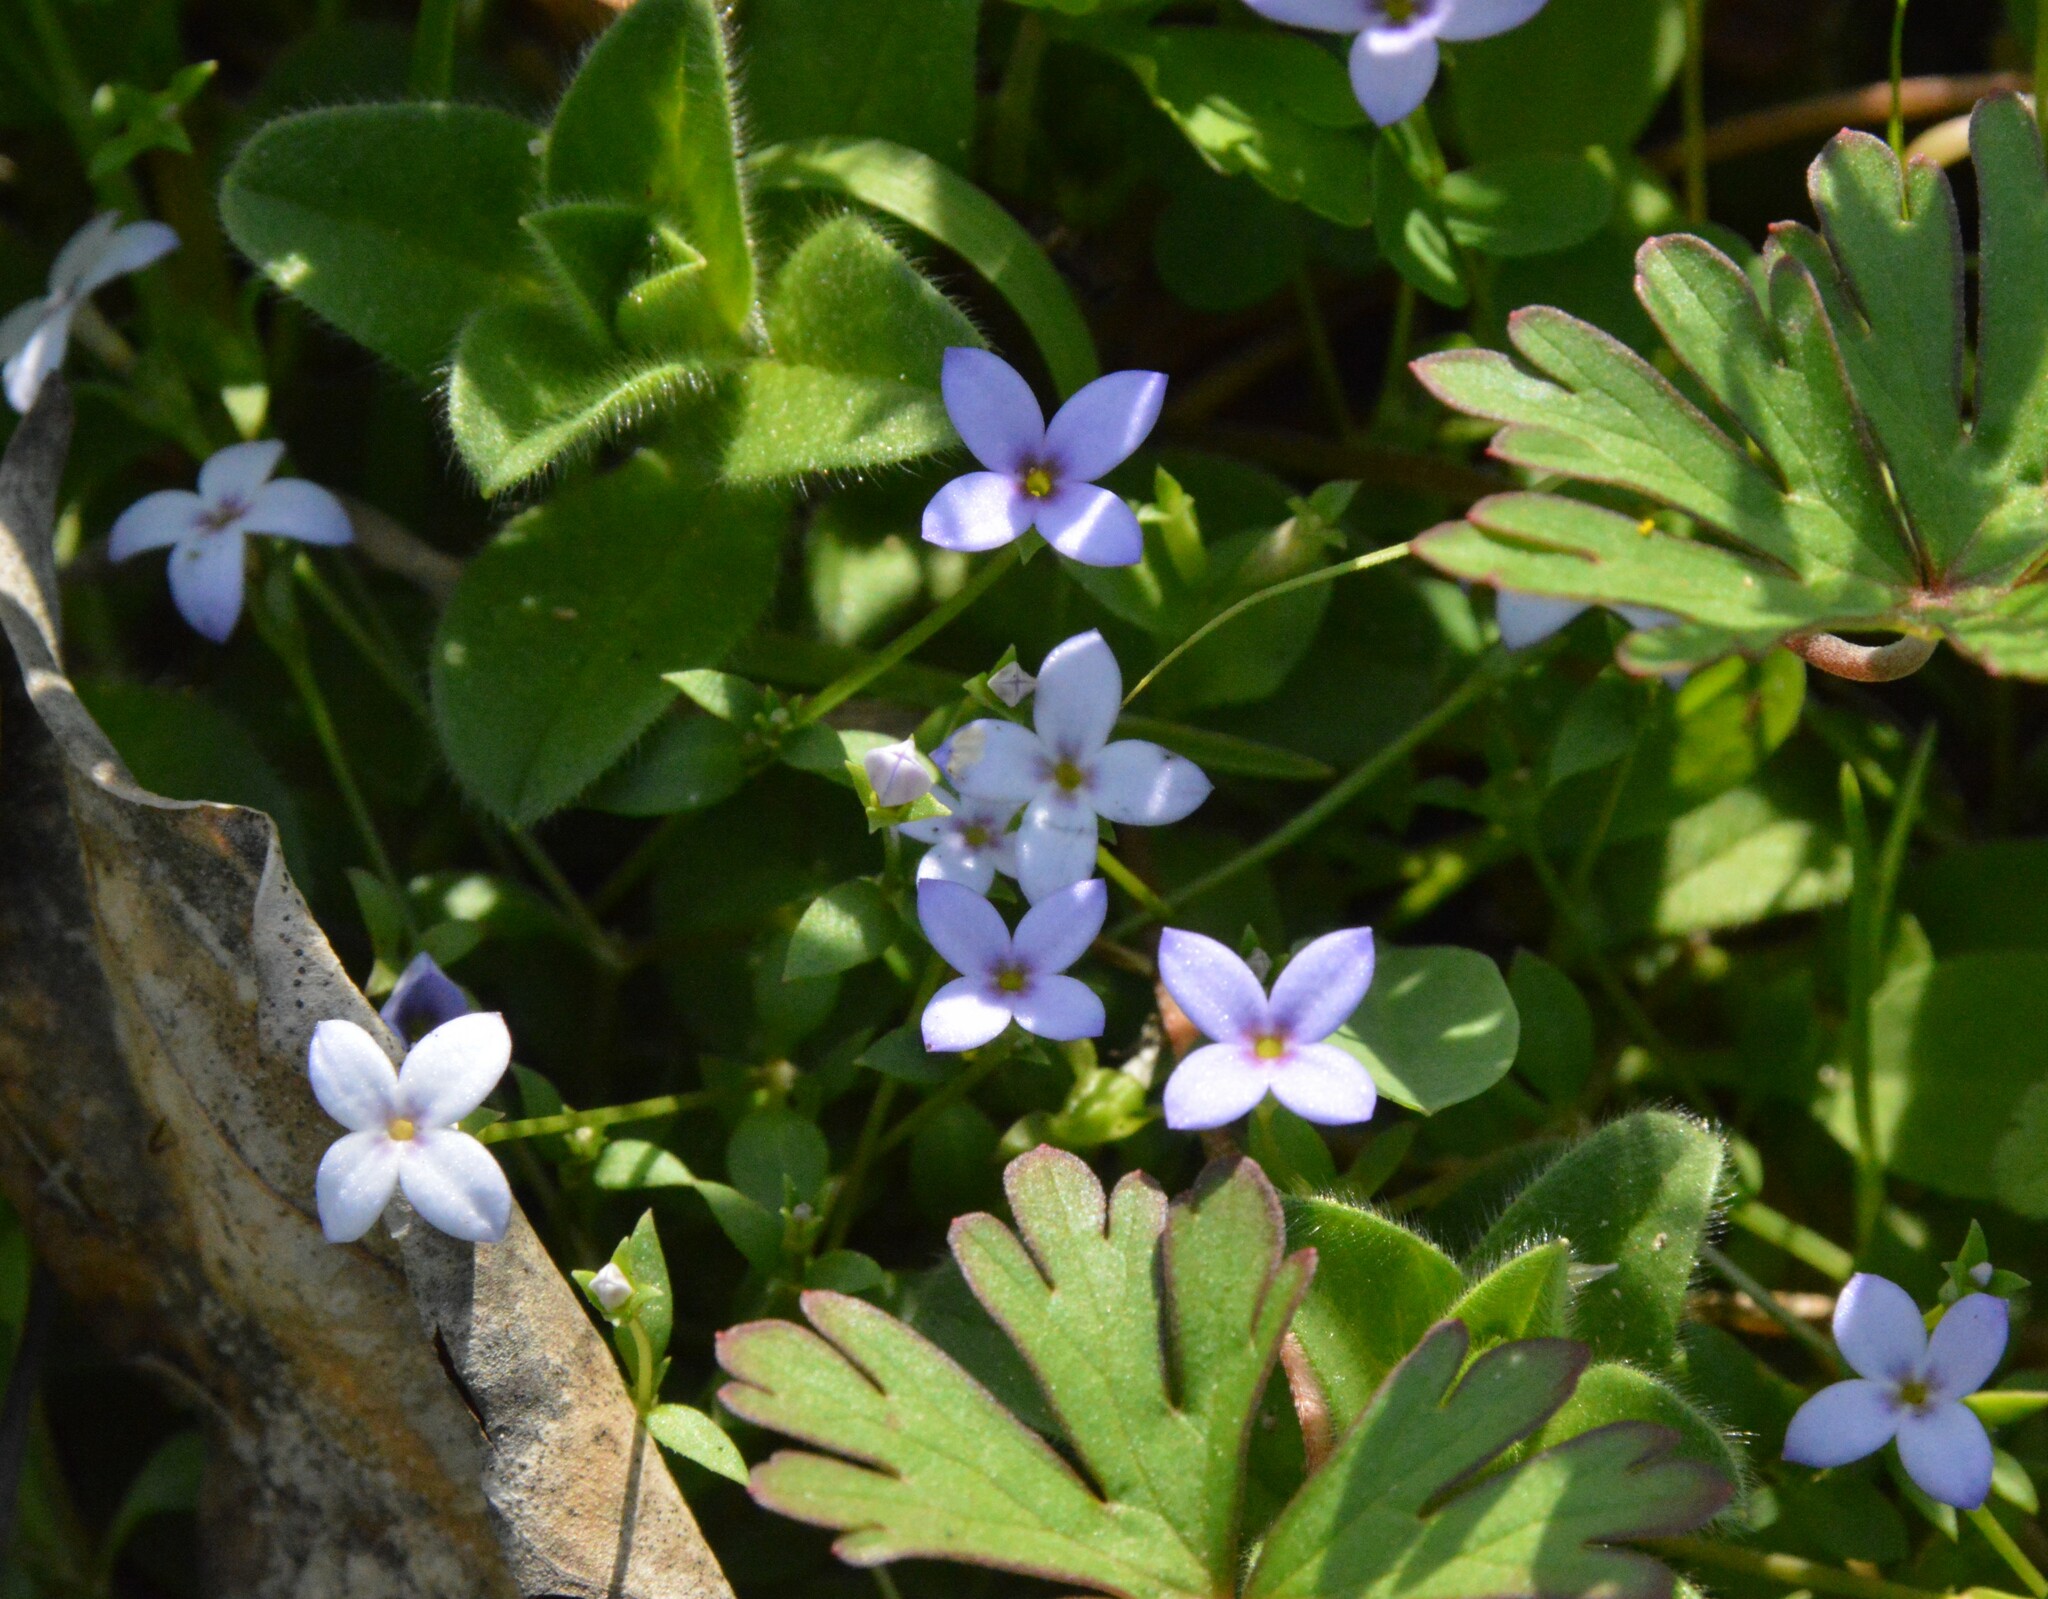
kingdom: Plantae
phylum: Tracheophyta
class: Magnoliopsida
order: Gentianales
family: Rubiaceae
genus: Houstonia
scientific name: Houstonia pusilla
